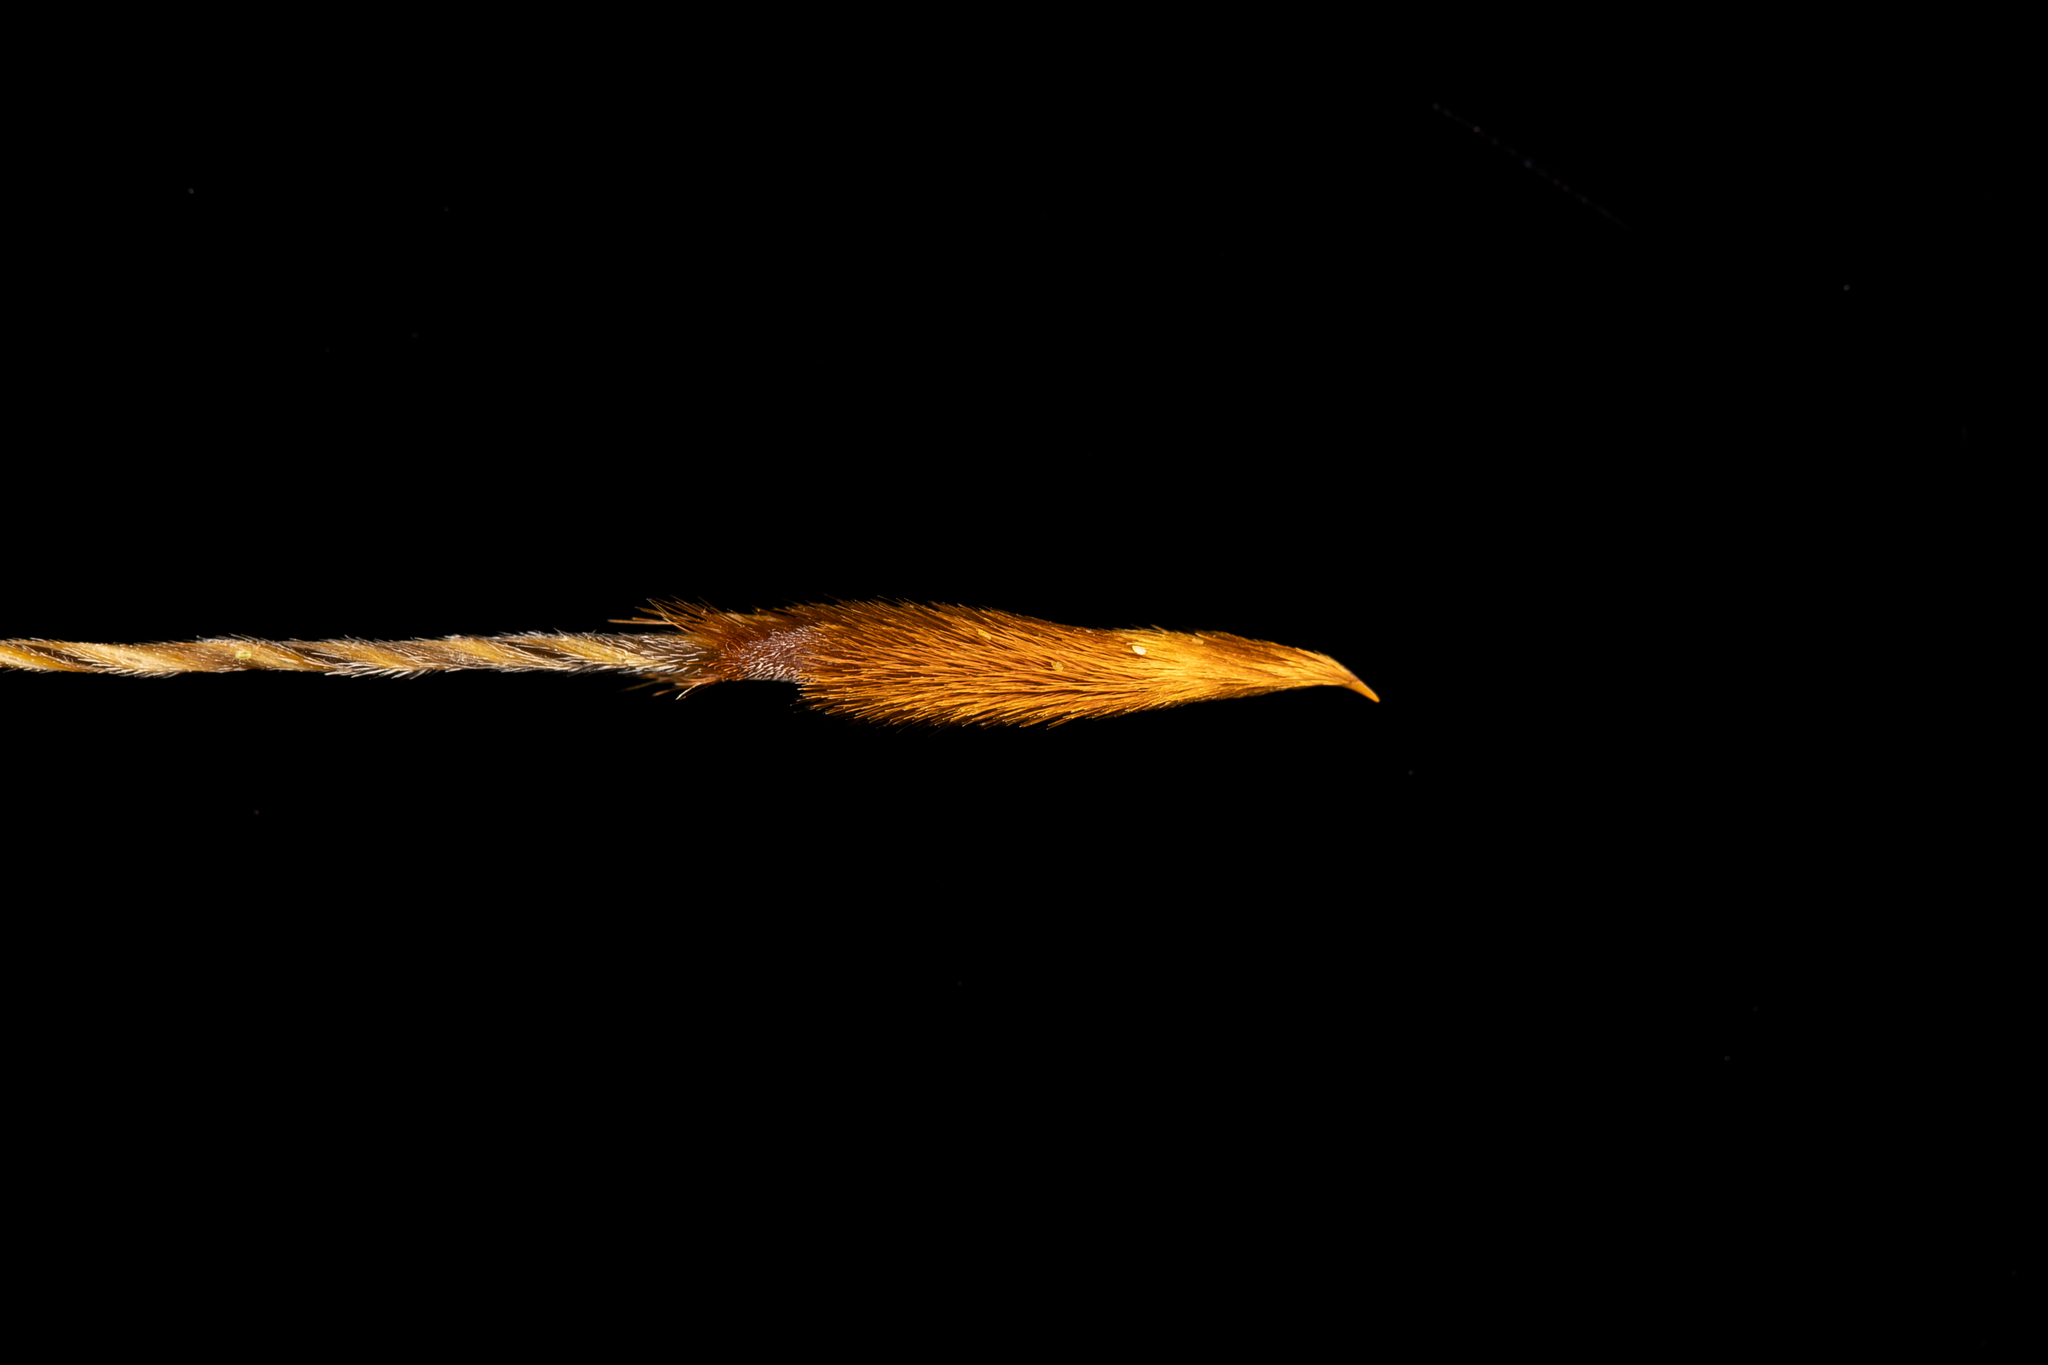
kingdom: Plantae
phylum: Tracheophyta
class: Liliopsida
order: Poales
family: Poaceae
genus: Austrostipa
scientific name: Austrostipa eremophila
